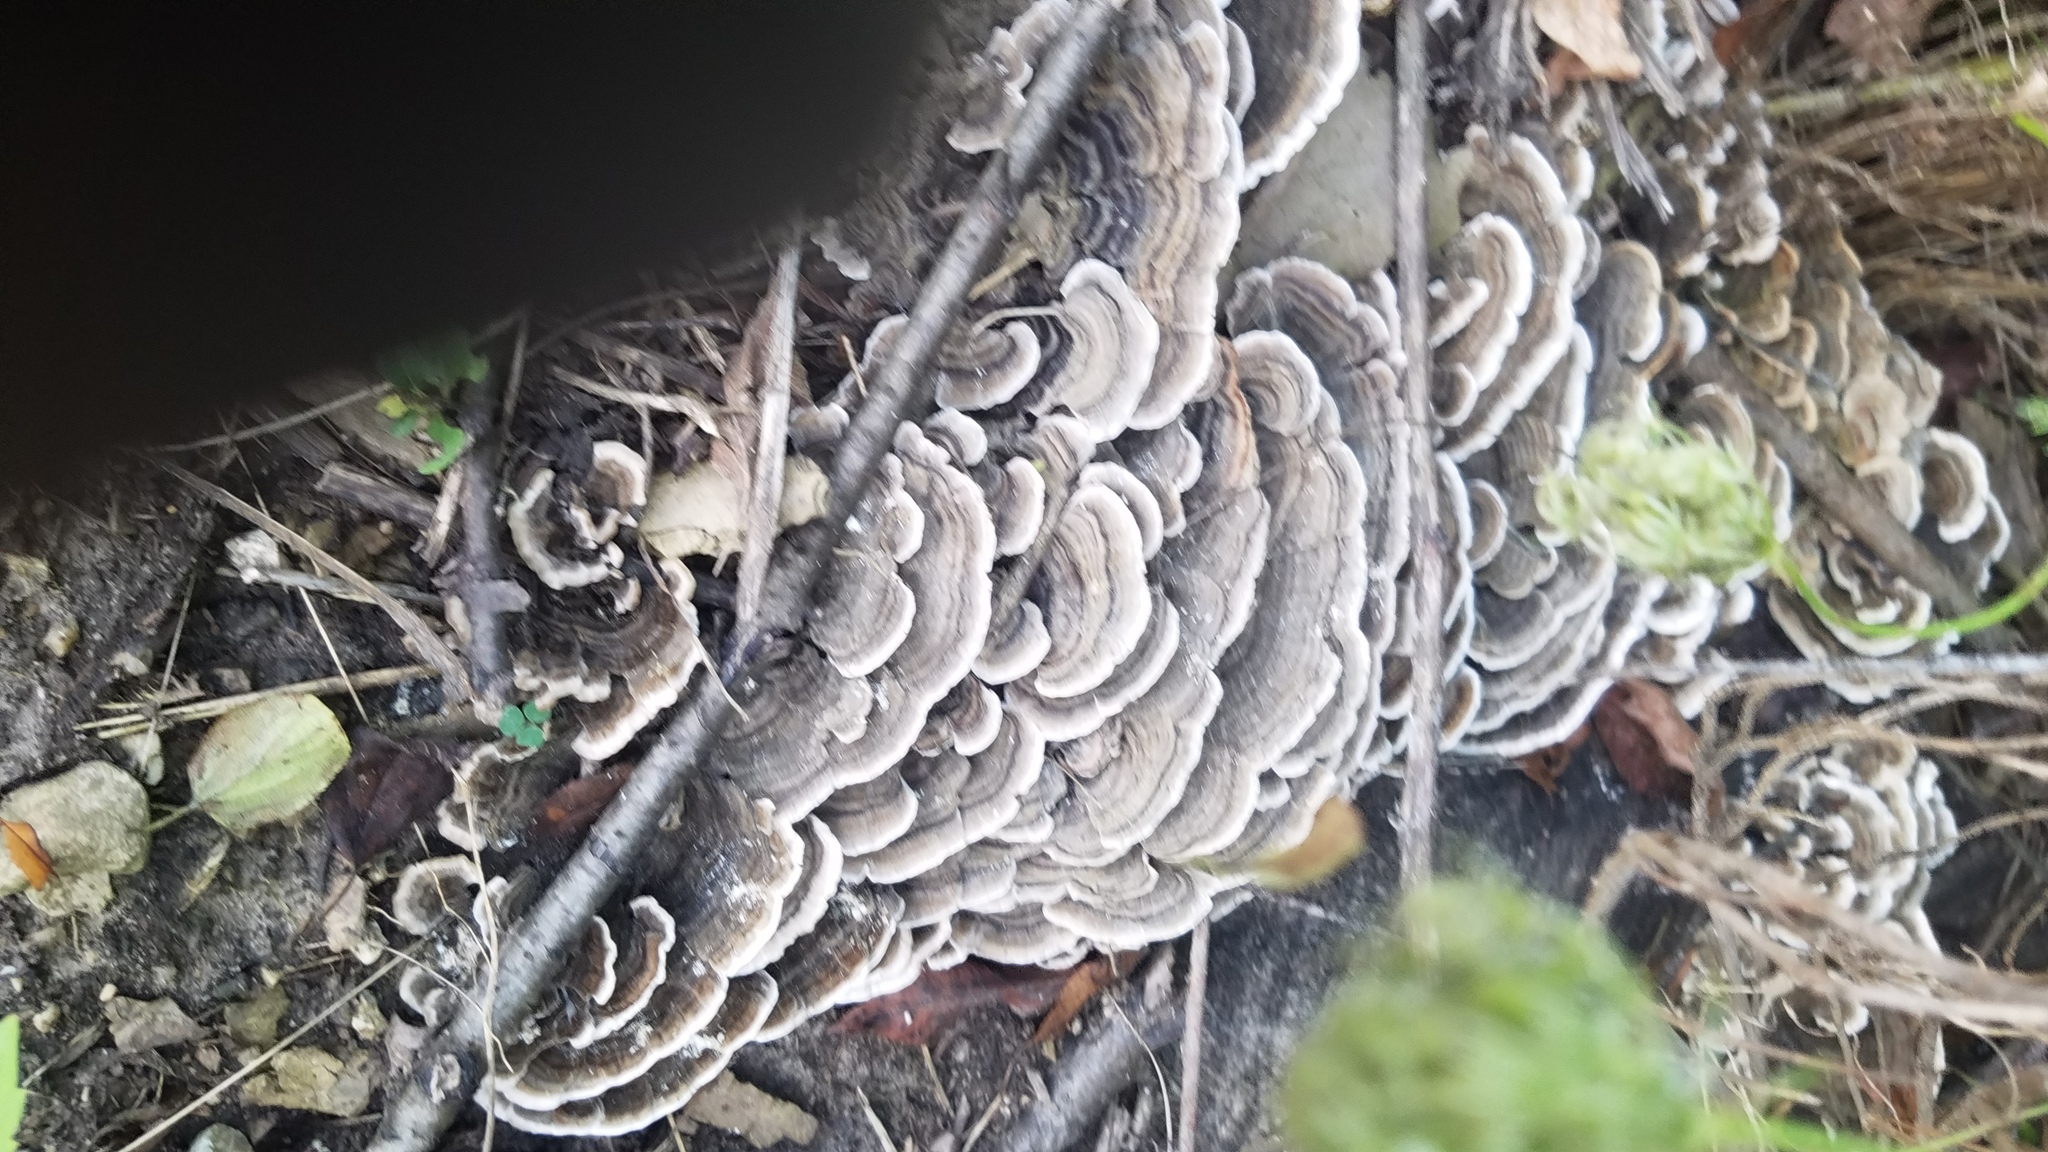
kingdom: Fungi
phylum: Basidiomycota
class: Agaricomycetes
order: Polyporales
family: Polyporaceae
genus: Trametes
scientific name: Trametes versicolor
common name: Turkeytail
